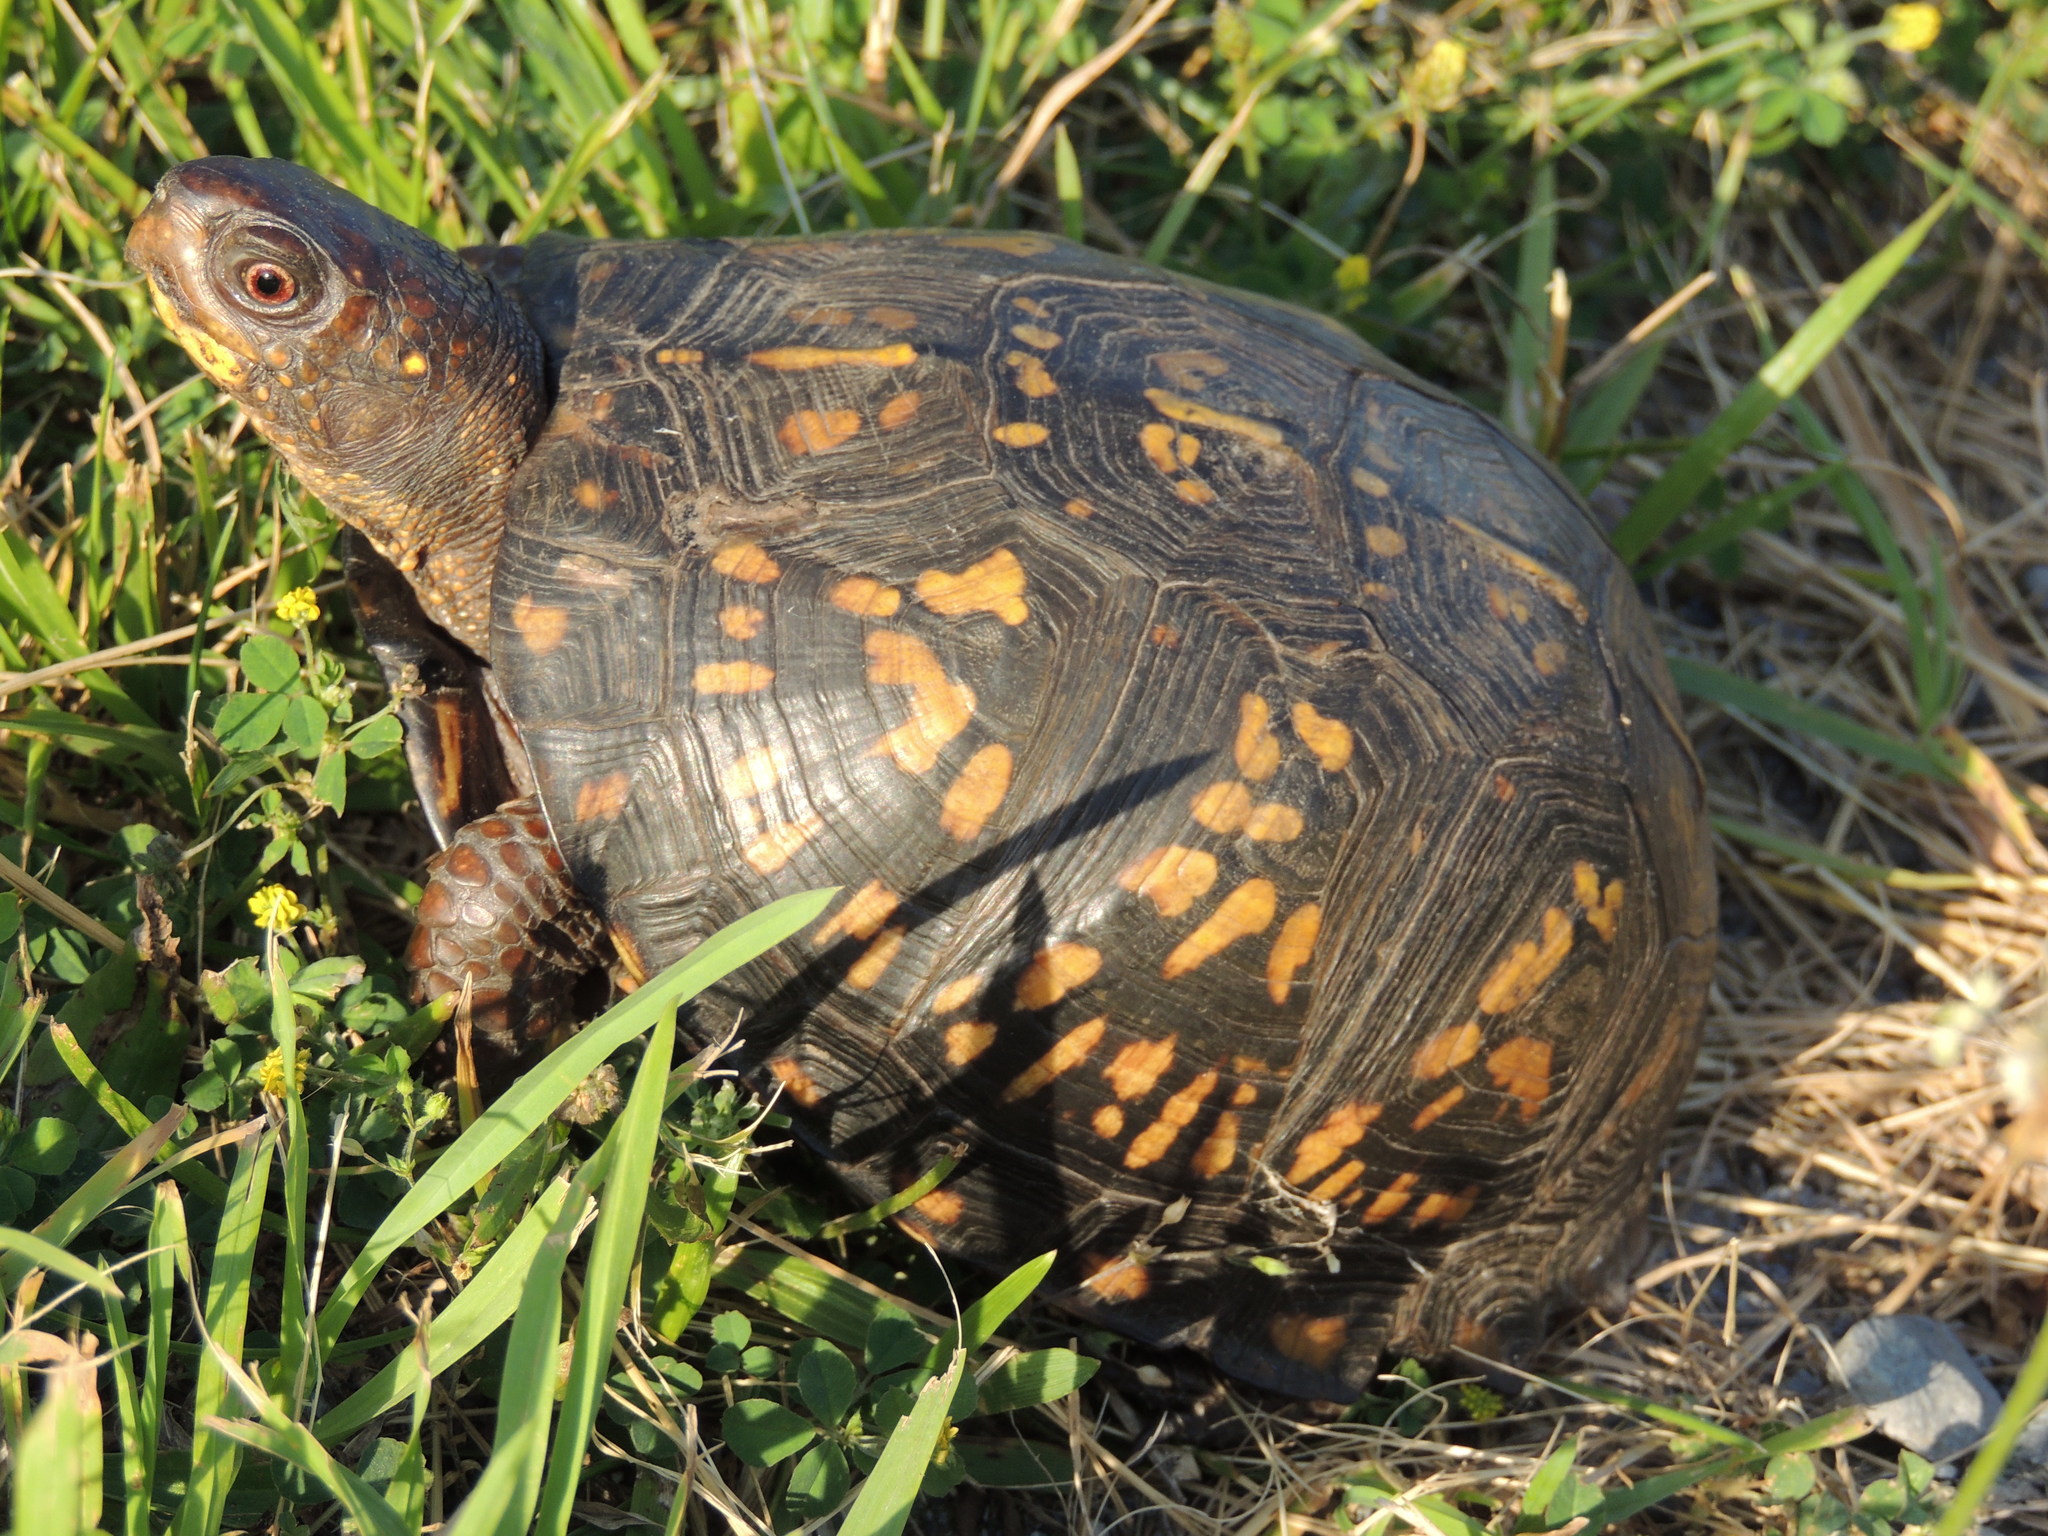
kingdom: Animalia
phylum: Chordata
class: Testudines
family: Emydidae
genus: Terrapene
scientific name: Terrapene carolina
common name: Common box turtle
